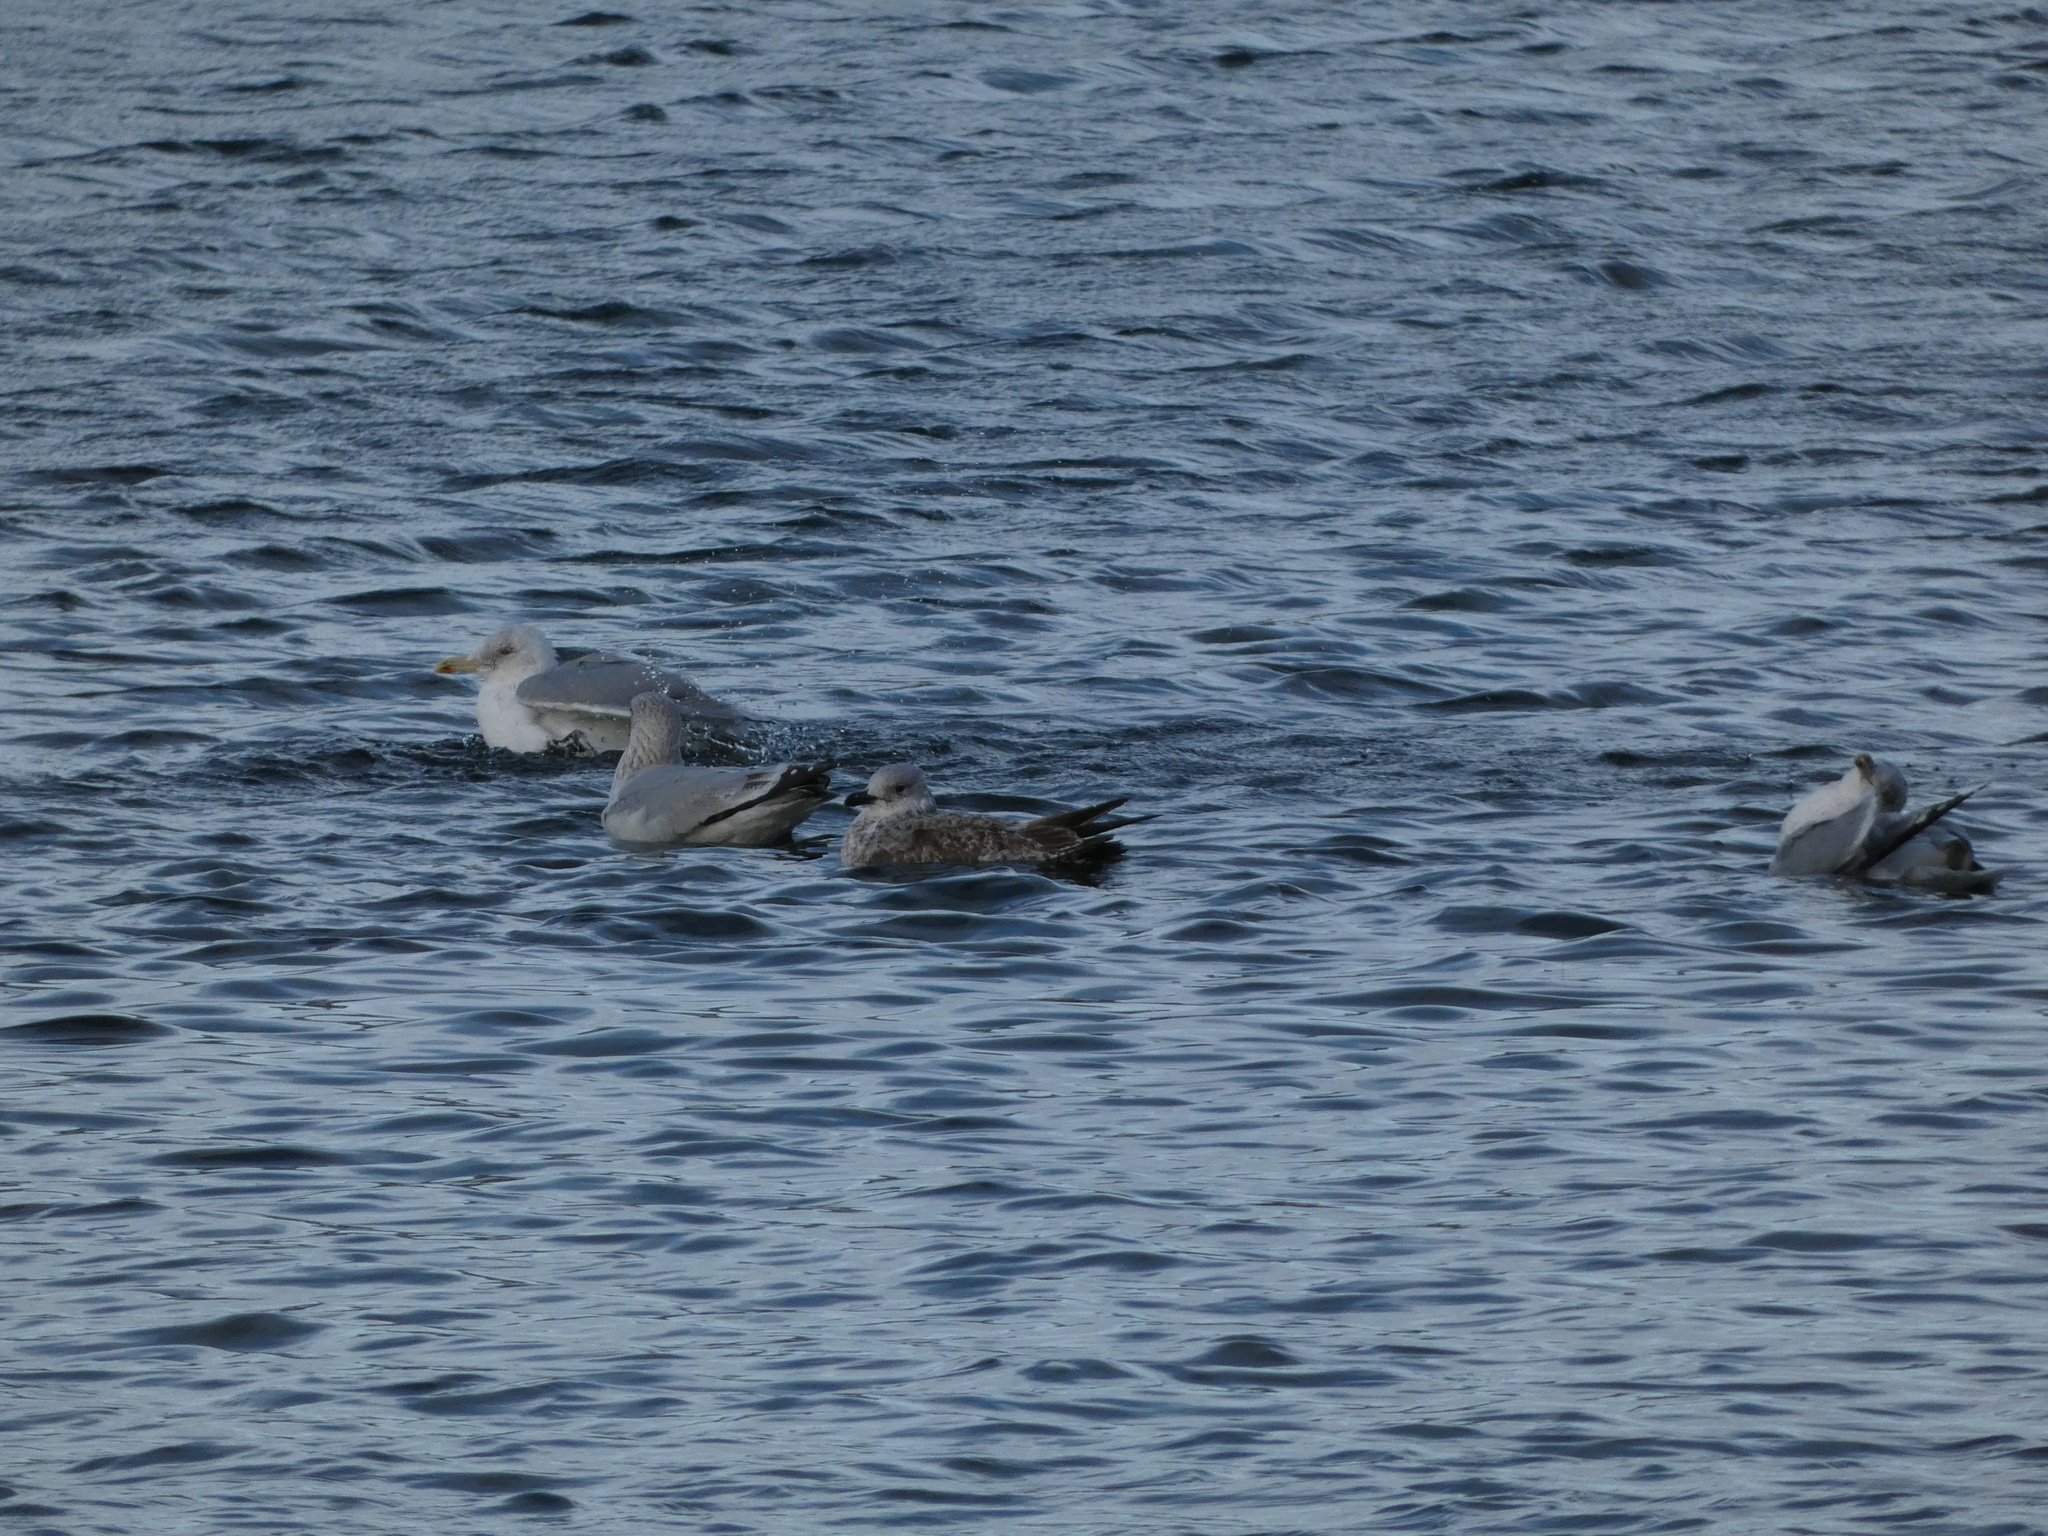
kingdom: Animalia
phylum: Chordata
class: Aves
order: Charadriiformes
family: Laridae
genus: Larus
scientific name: Larus argentatus
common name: Herring gull
